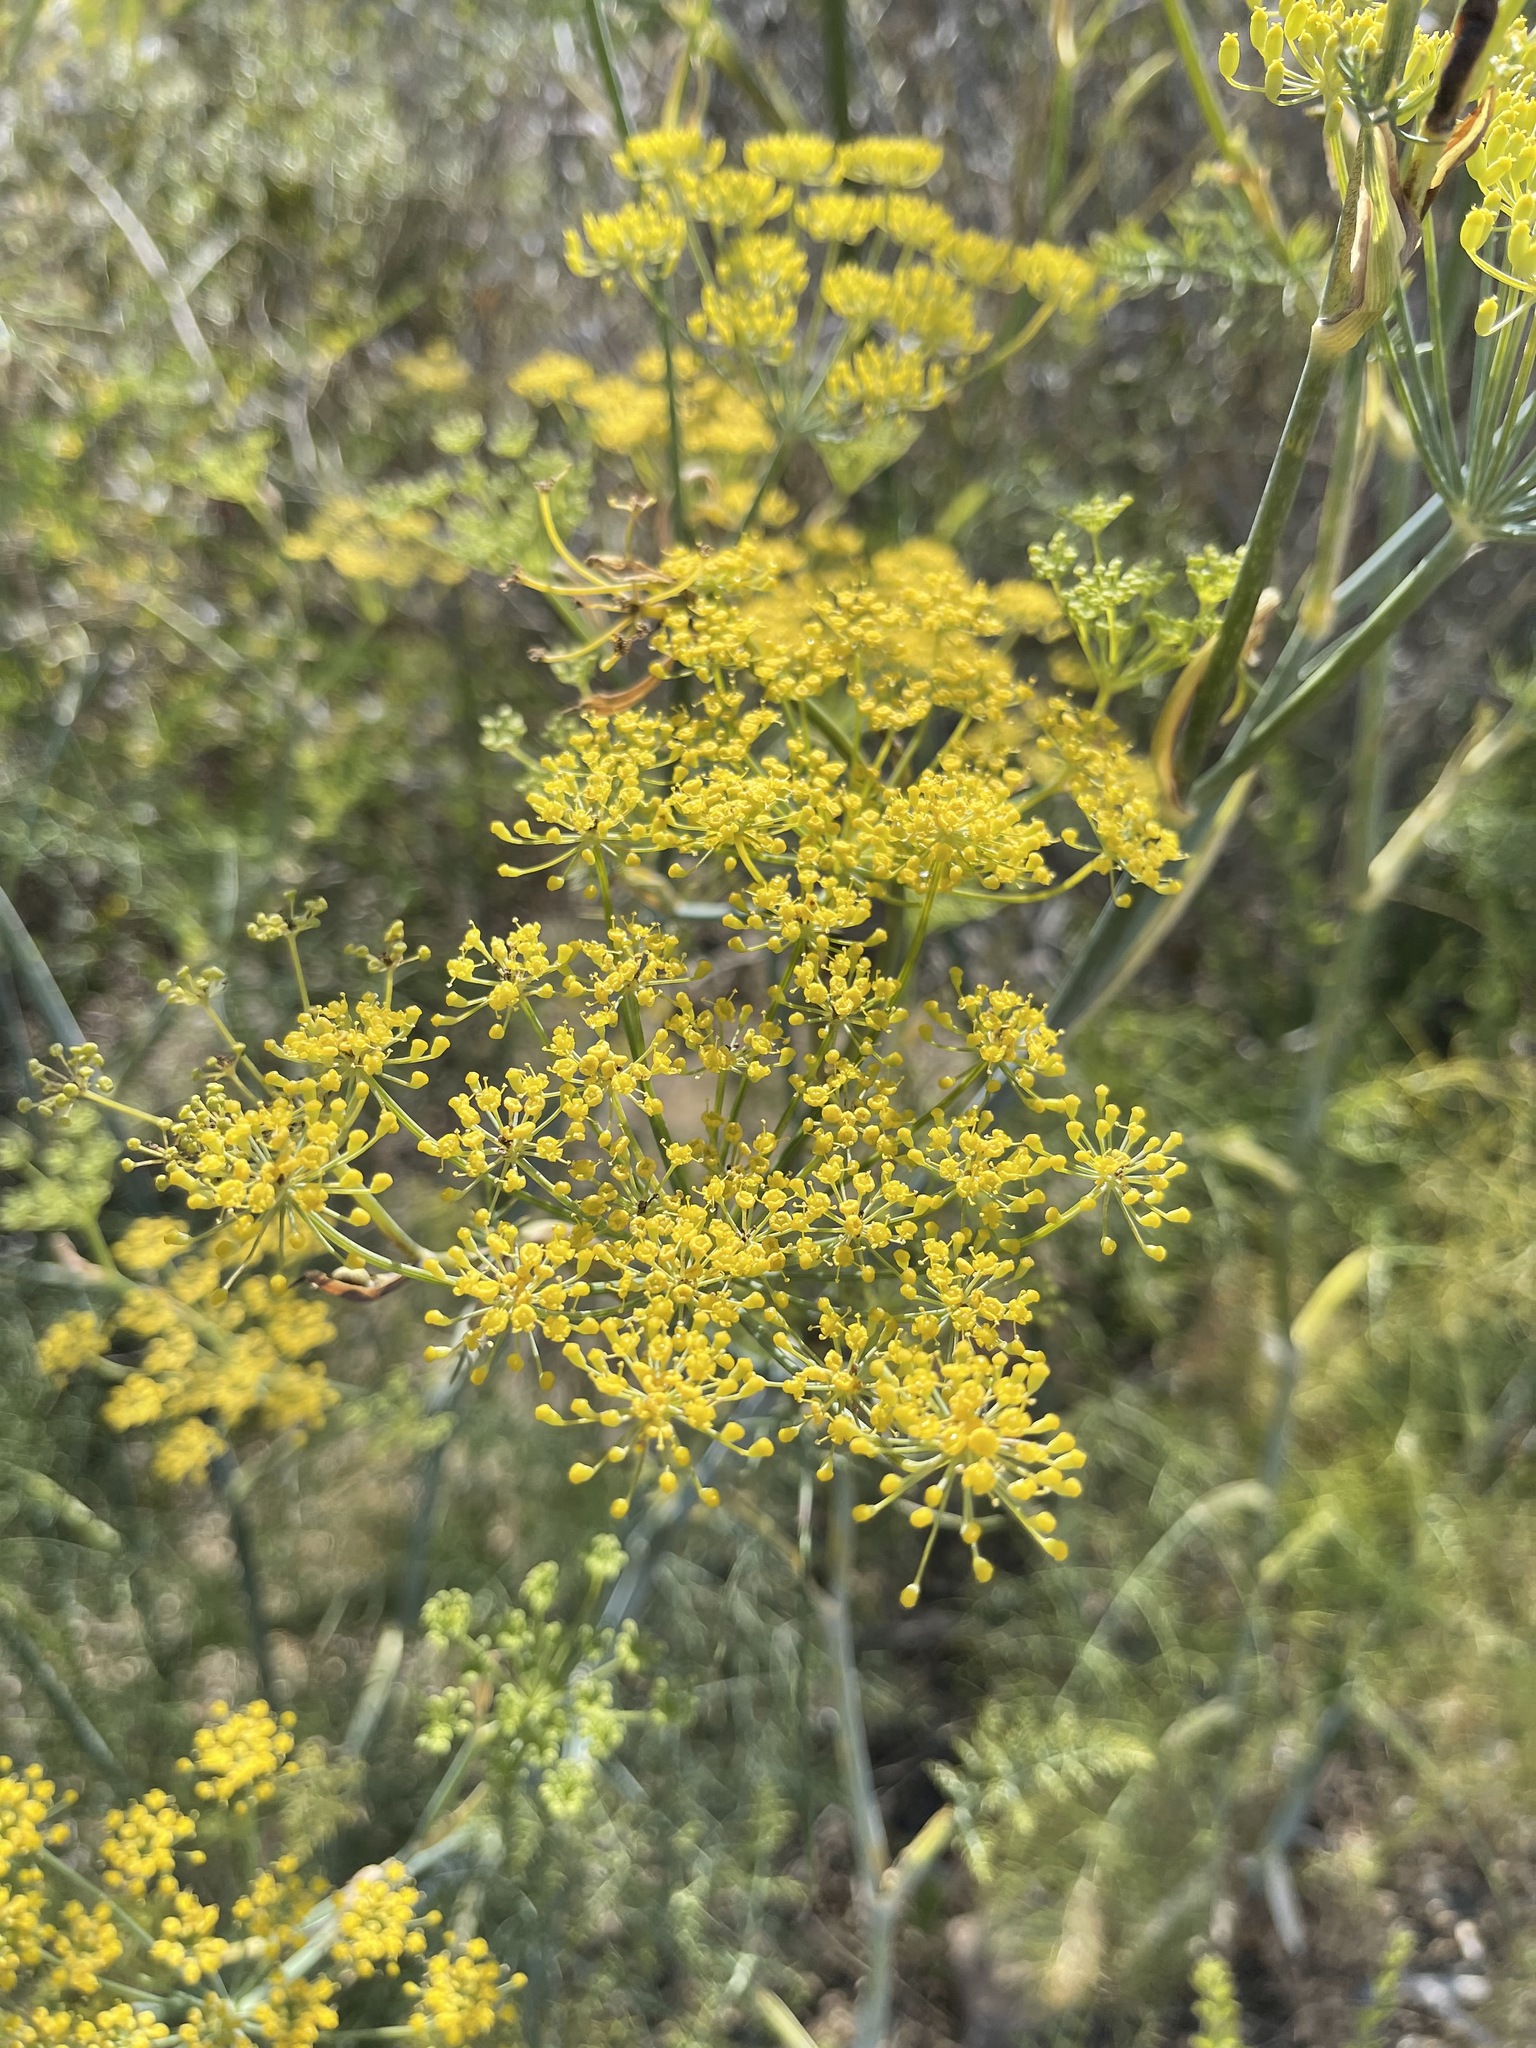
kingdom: Plantae
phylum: Tracheophyta
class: Magnoliopsida
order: Apiales
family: Apiaceae
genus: Foeniculum
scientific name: Foeniculum vulgare
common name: Fennel
